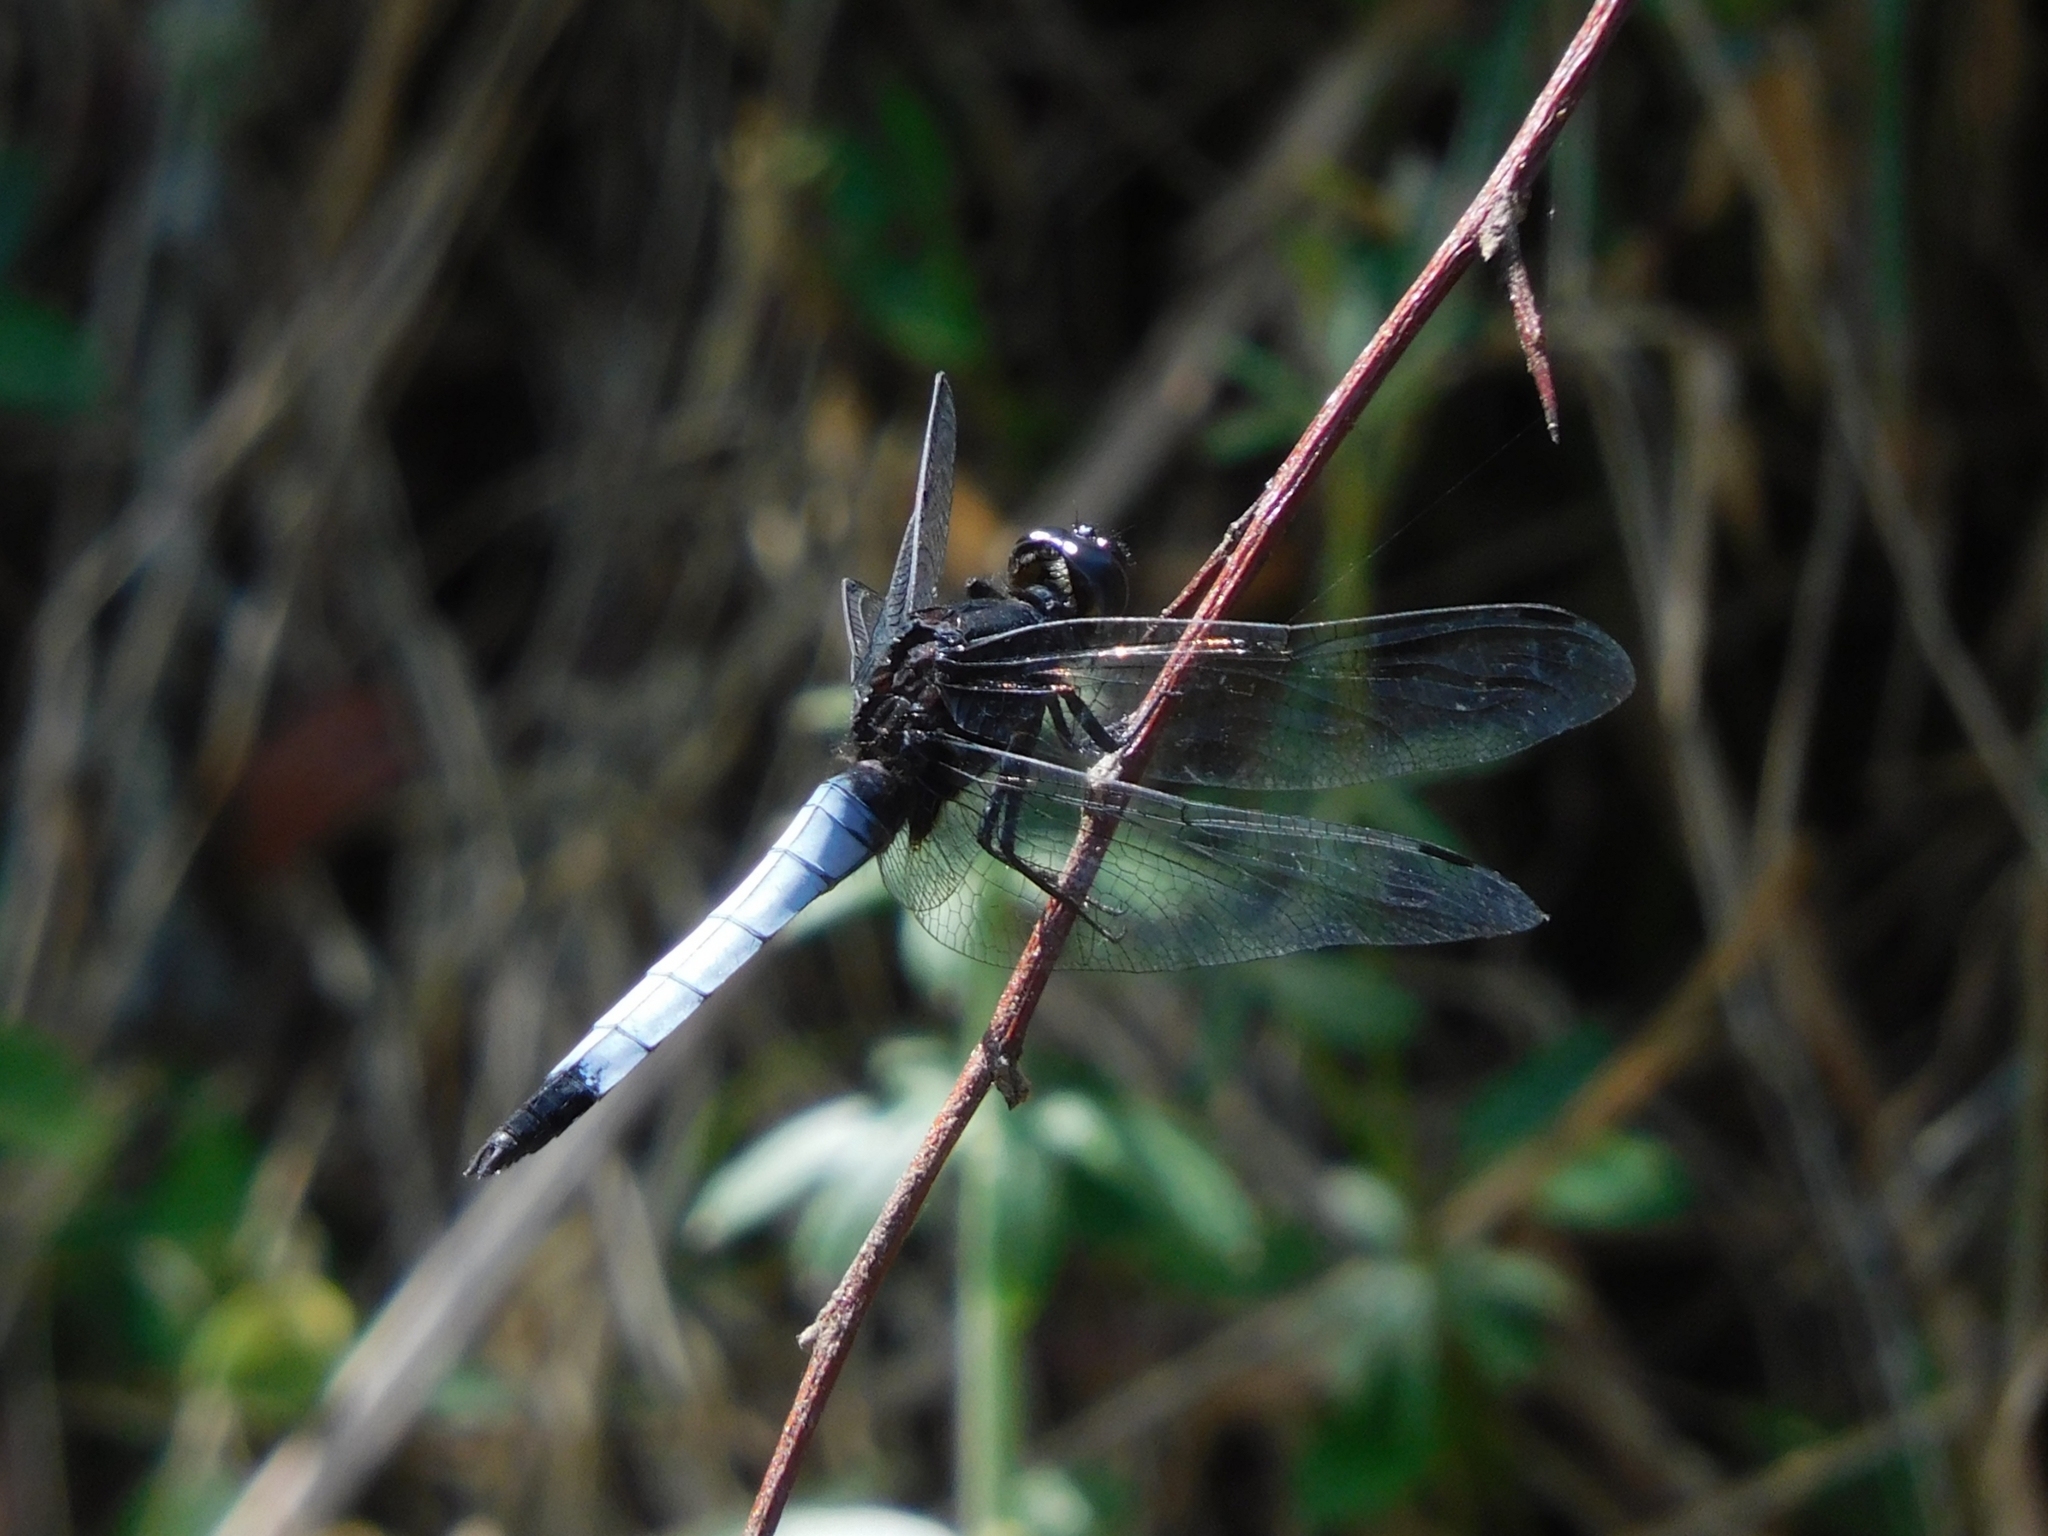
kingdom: Animalia
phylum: Arthropoda
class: Insecta
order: Odonata
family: Libellulidae
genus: Orthetrum
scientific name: Orthetrum triangulare
